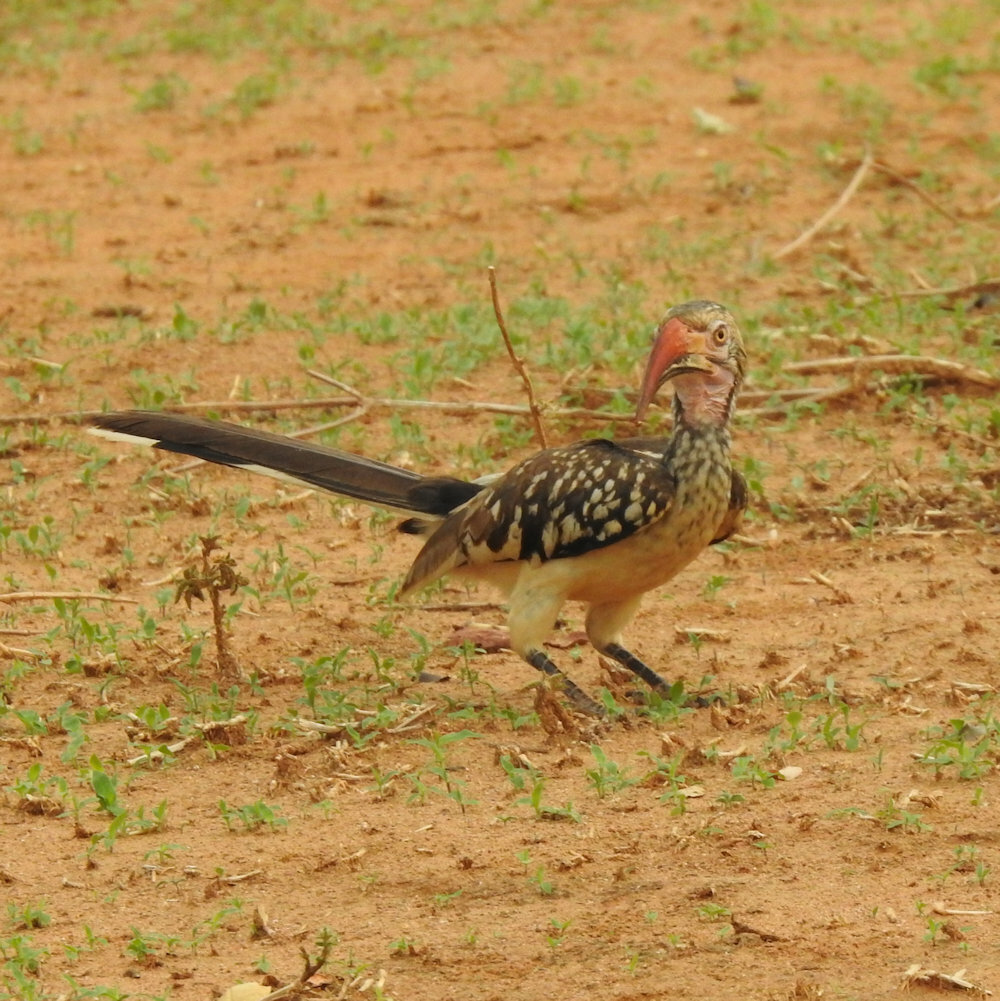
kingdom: Animalia
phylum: Chordata
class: Aves
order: Bucerotiformes
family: Bucerotidae
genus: Tockus
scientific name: Tockus rufirostris
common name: Southern red-billed hornbill
